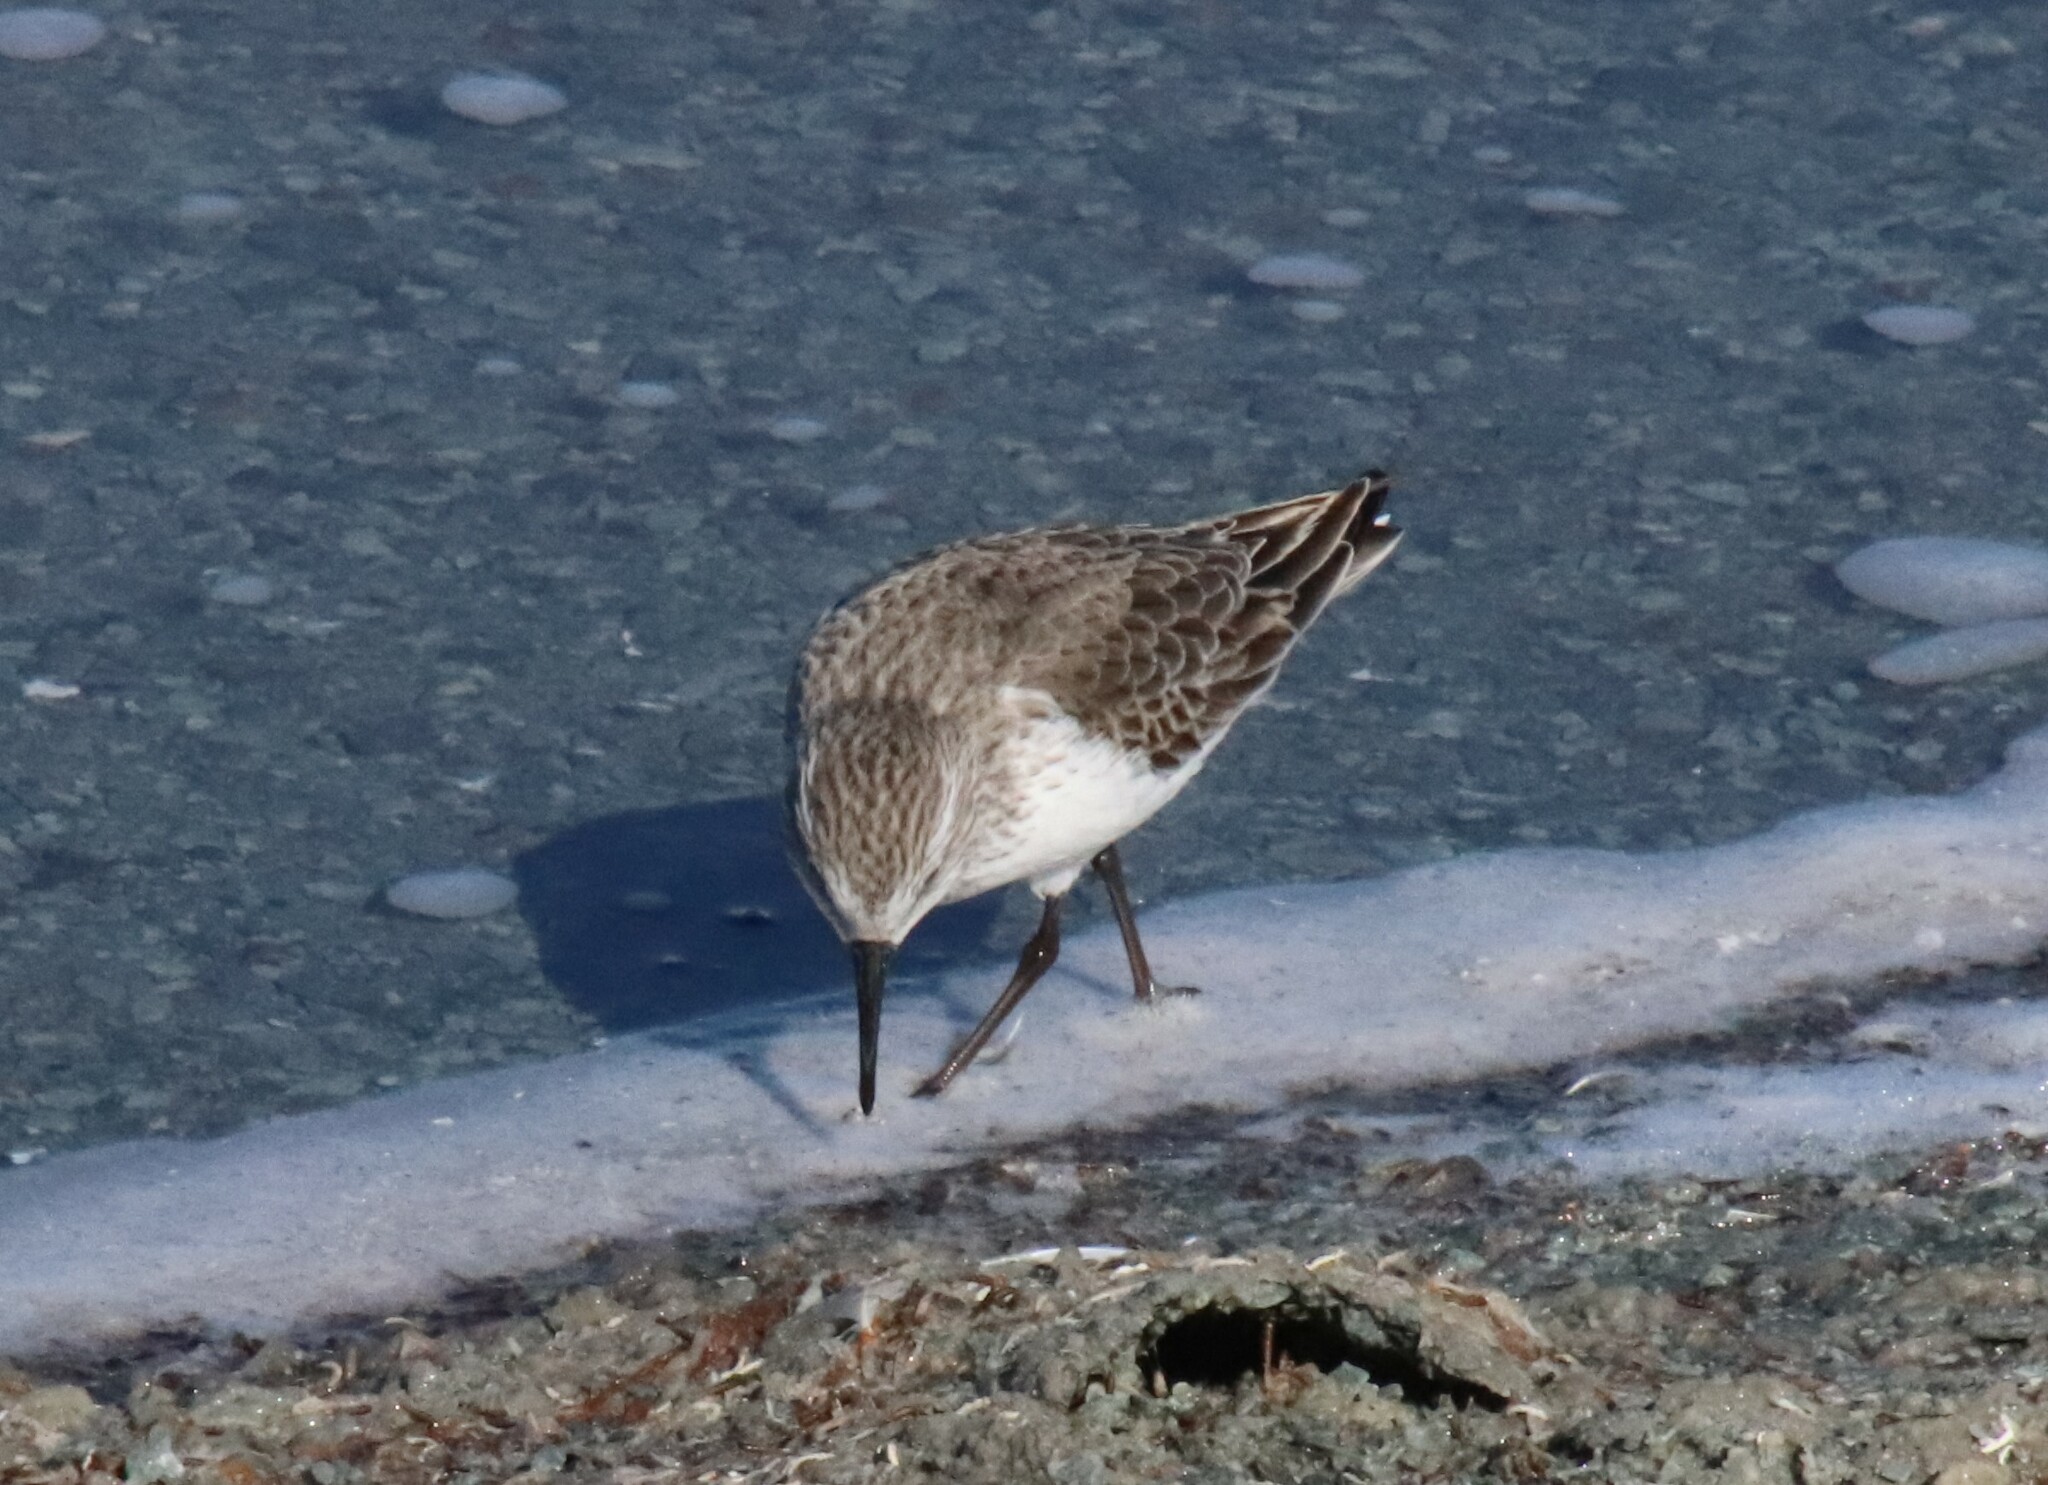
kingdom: Animalia
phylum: Chordata
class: Aves
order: Charadriiformes
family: Scolopacidae
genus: Calidris
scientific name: Calidris mauri
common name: Western sandpiper
